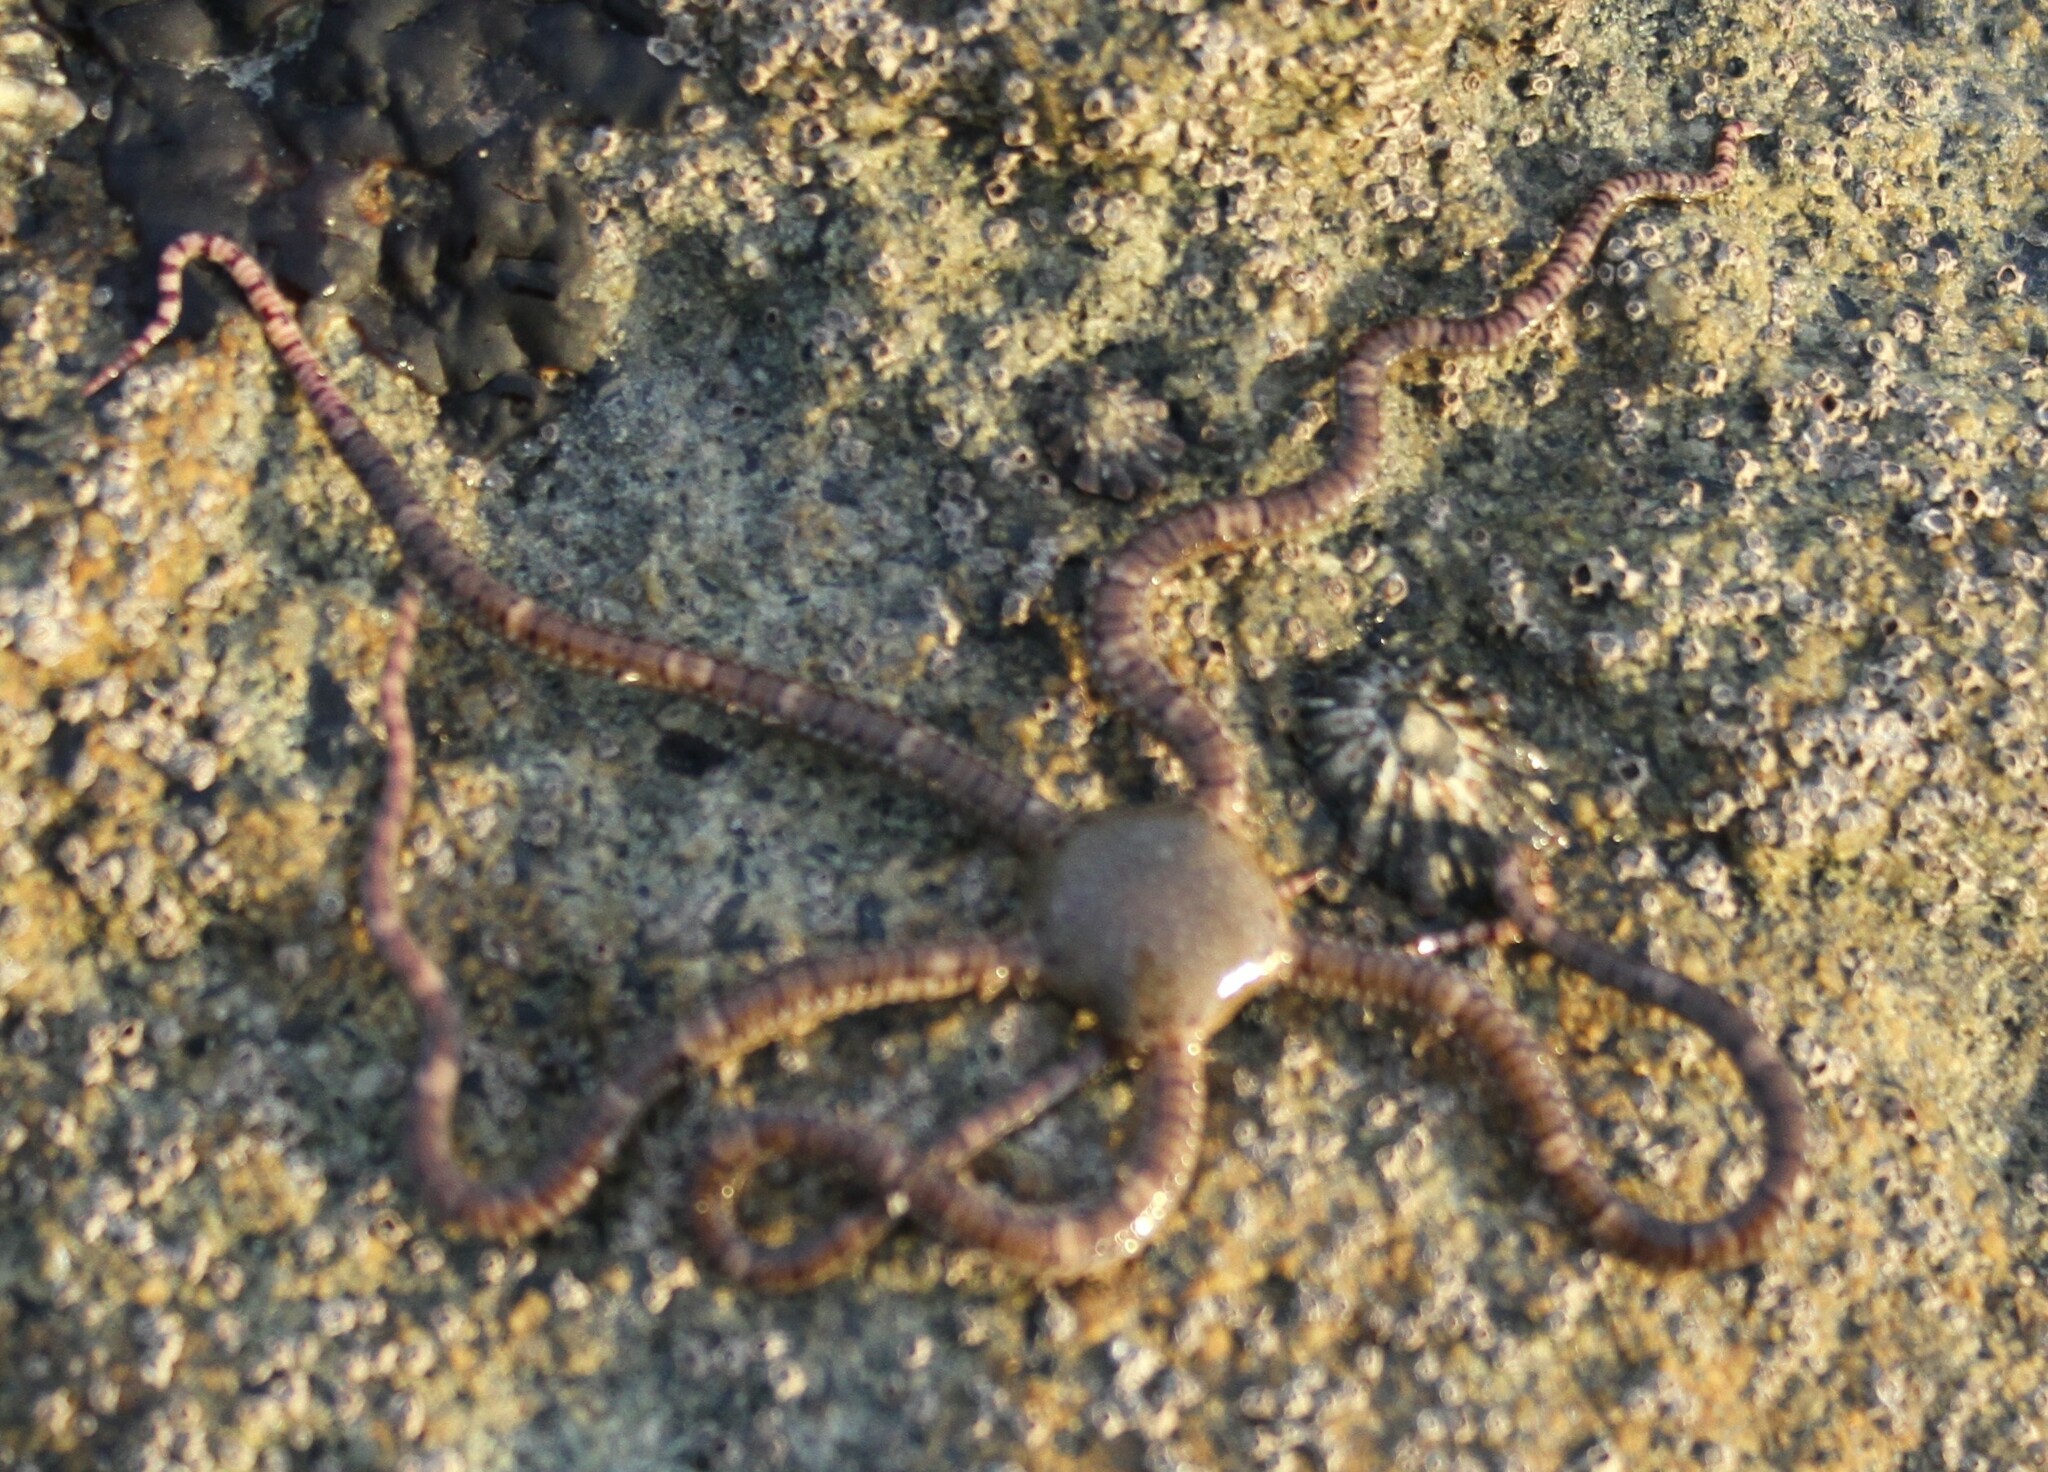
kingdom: Animalia
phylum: Echinodermata
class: Ophiuroidea
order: Amphilepidida
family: Ophionereididae
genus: Ophionereis
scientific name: Ophionereis fasciata
